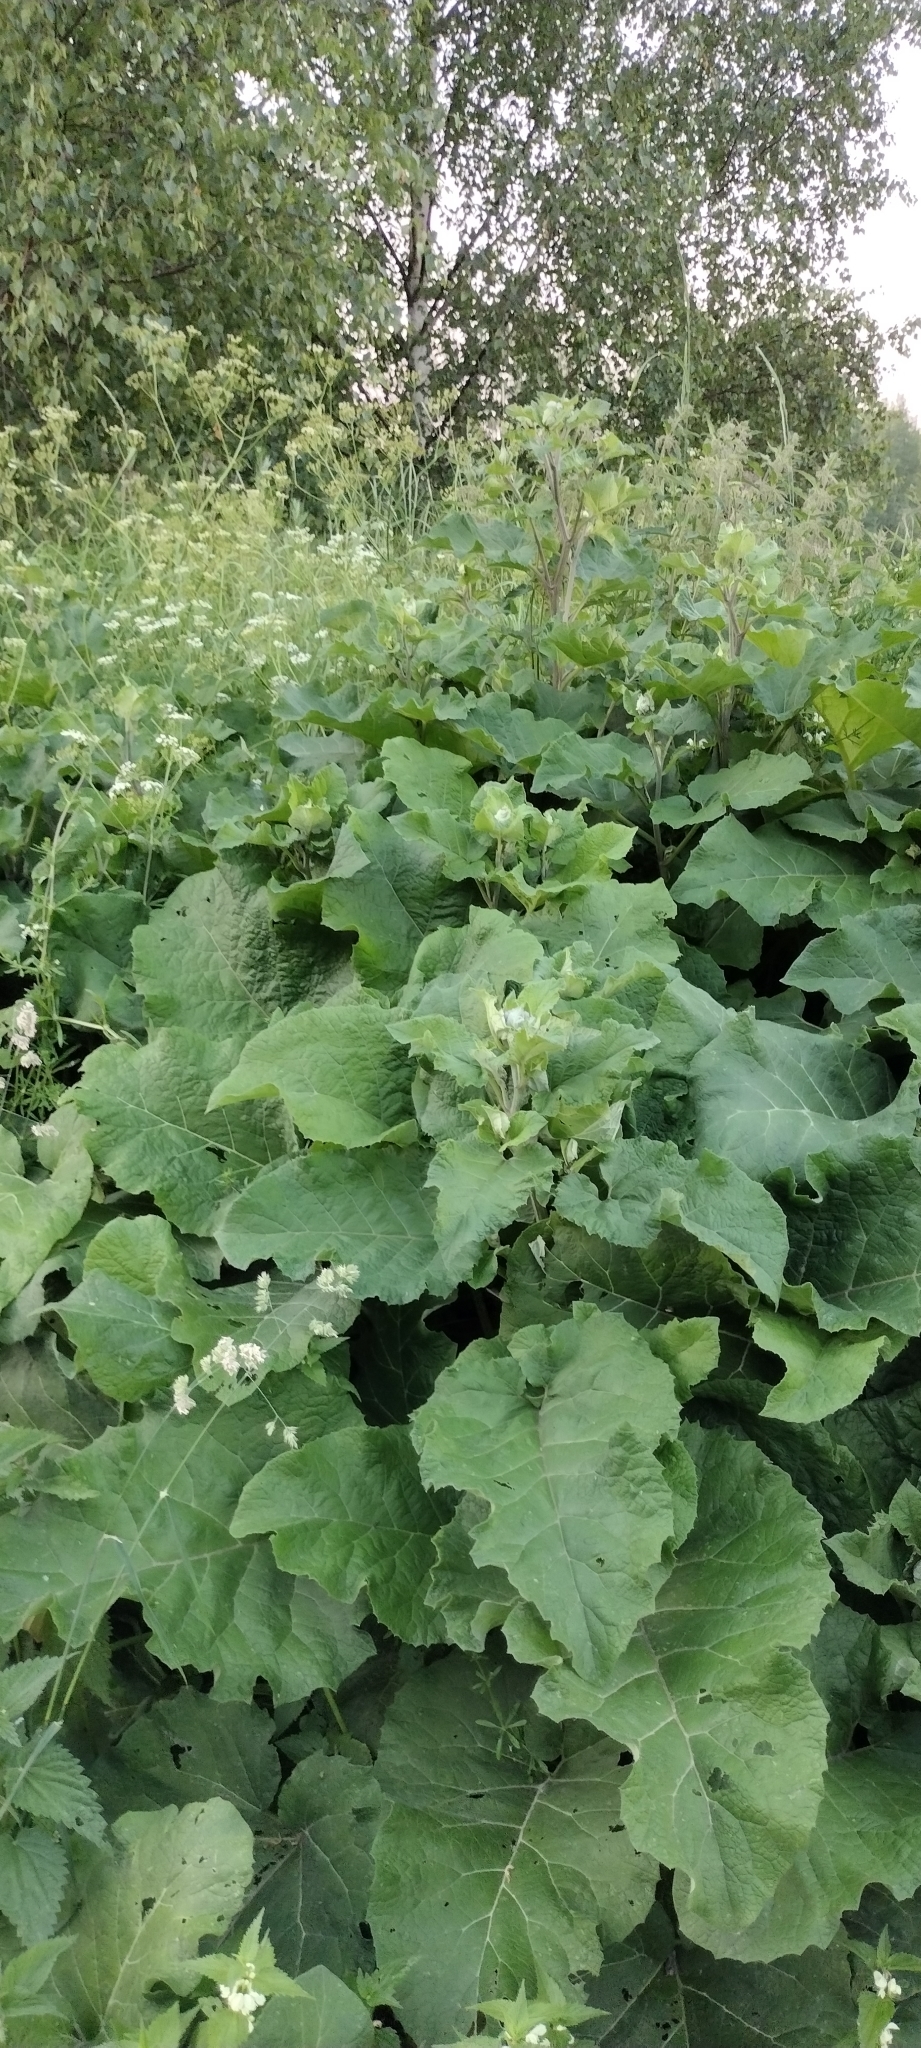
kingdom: Plantae
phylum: Tracheophyta
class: Magnoliopsida
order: Asterales
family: Asteraceae
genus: Arctium
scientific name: Arctium tomentosum
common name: Woolly burdock
